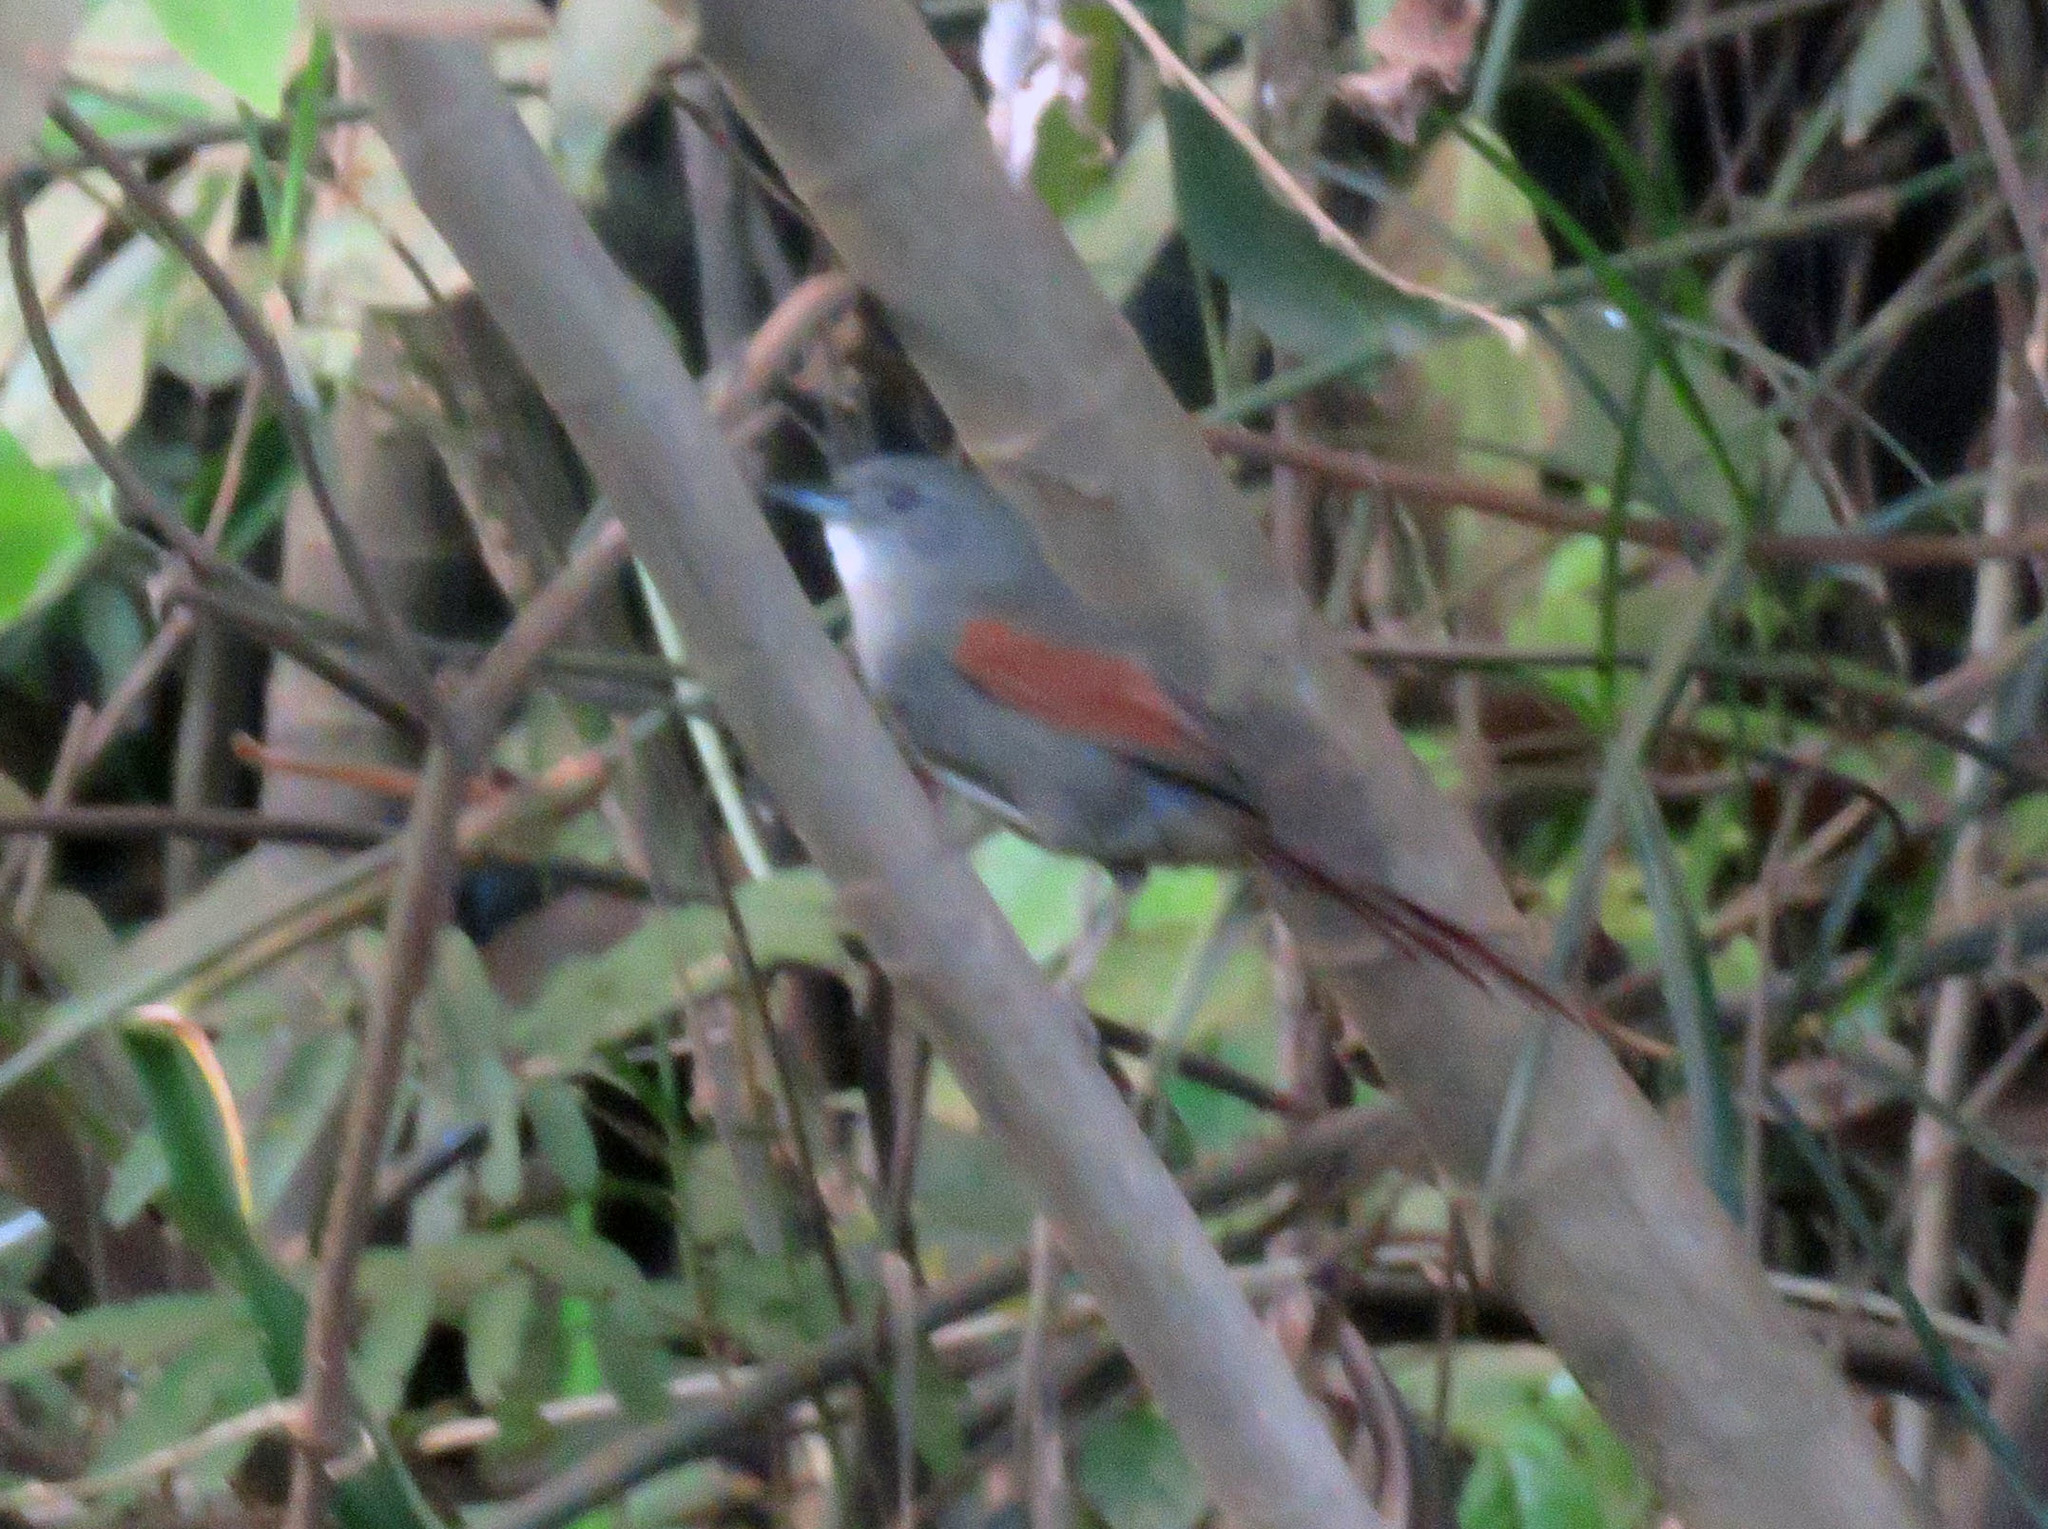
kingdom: Animalia
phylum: Chordata
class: Aves
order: Passeriformes
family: Furnariidae
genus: Synallaxis
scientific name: Synallaxis gujanensis
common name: Plain-crowned spinetail
